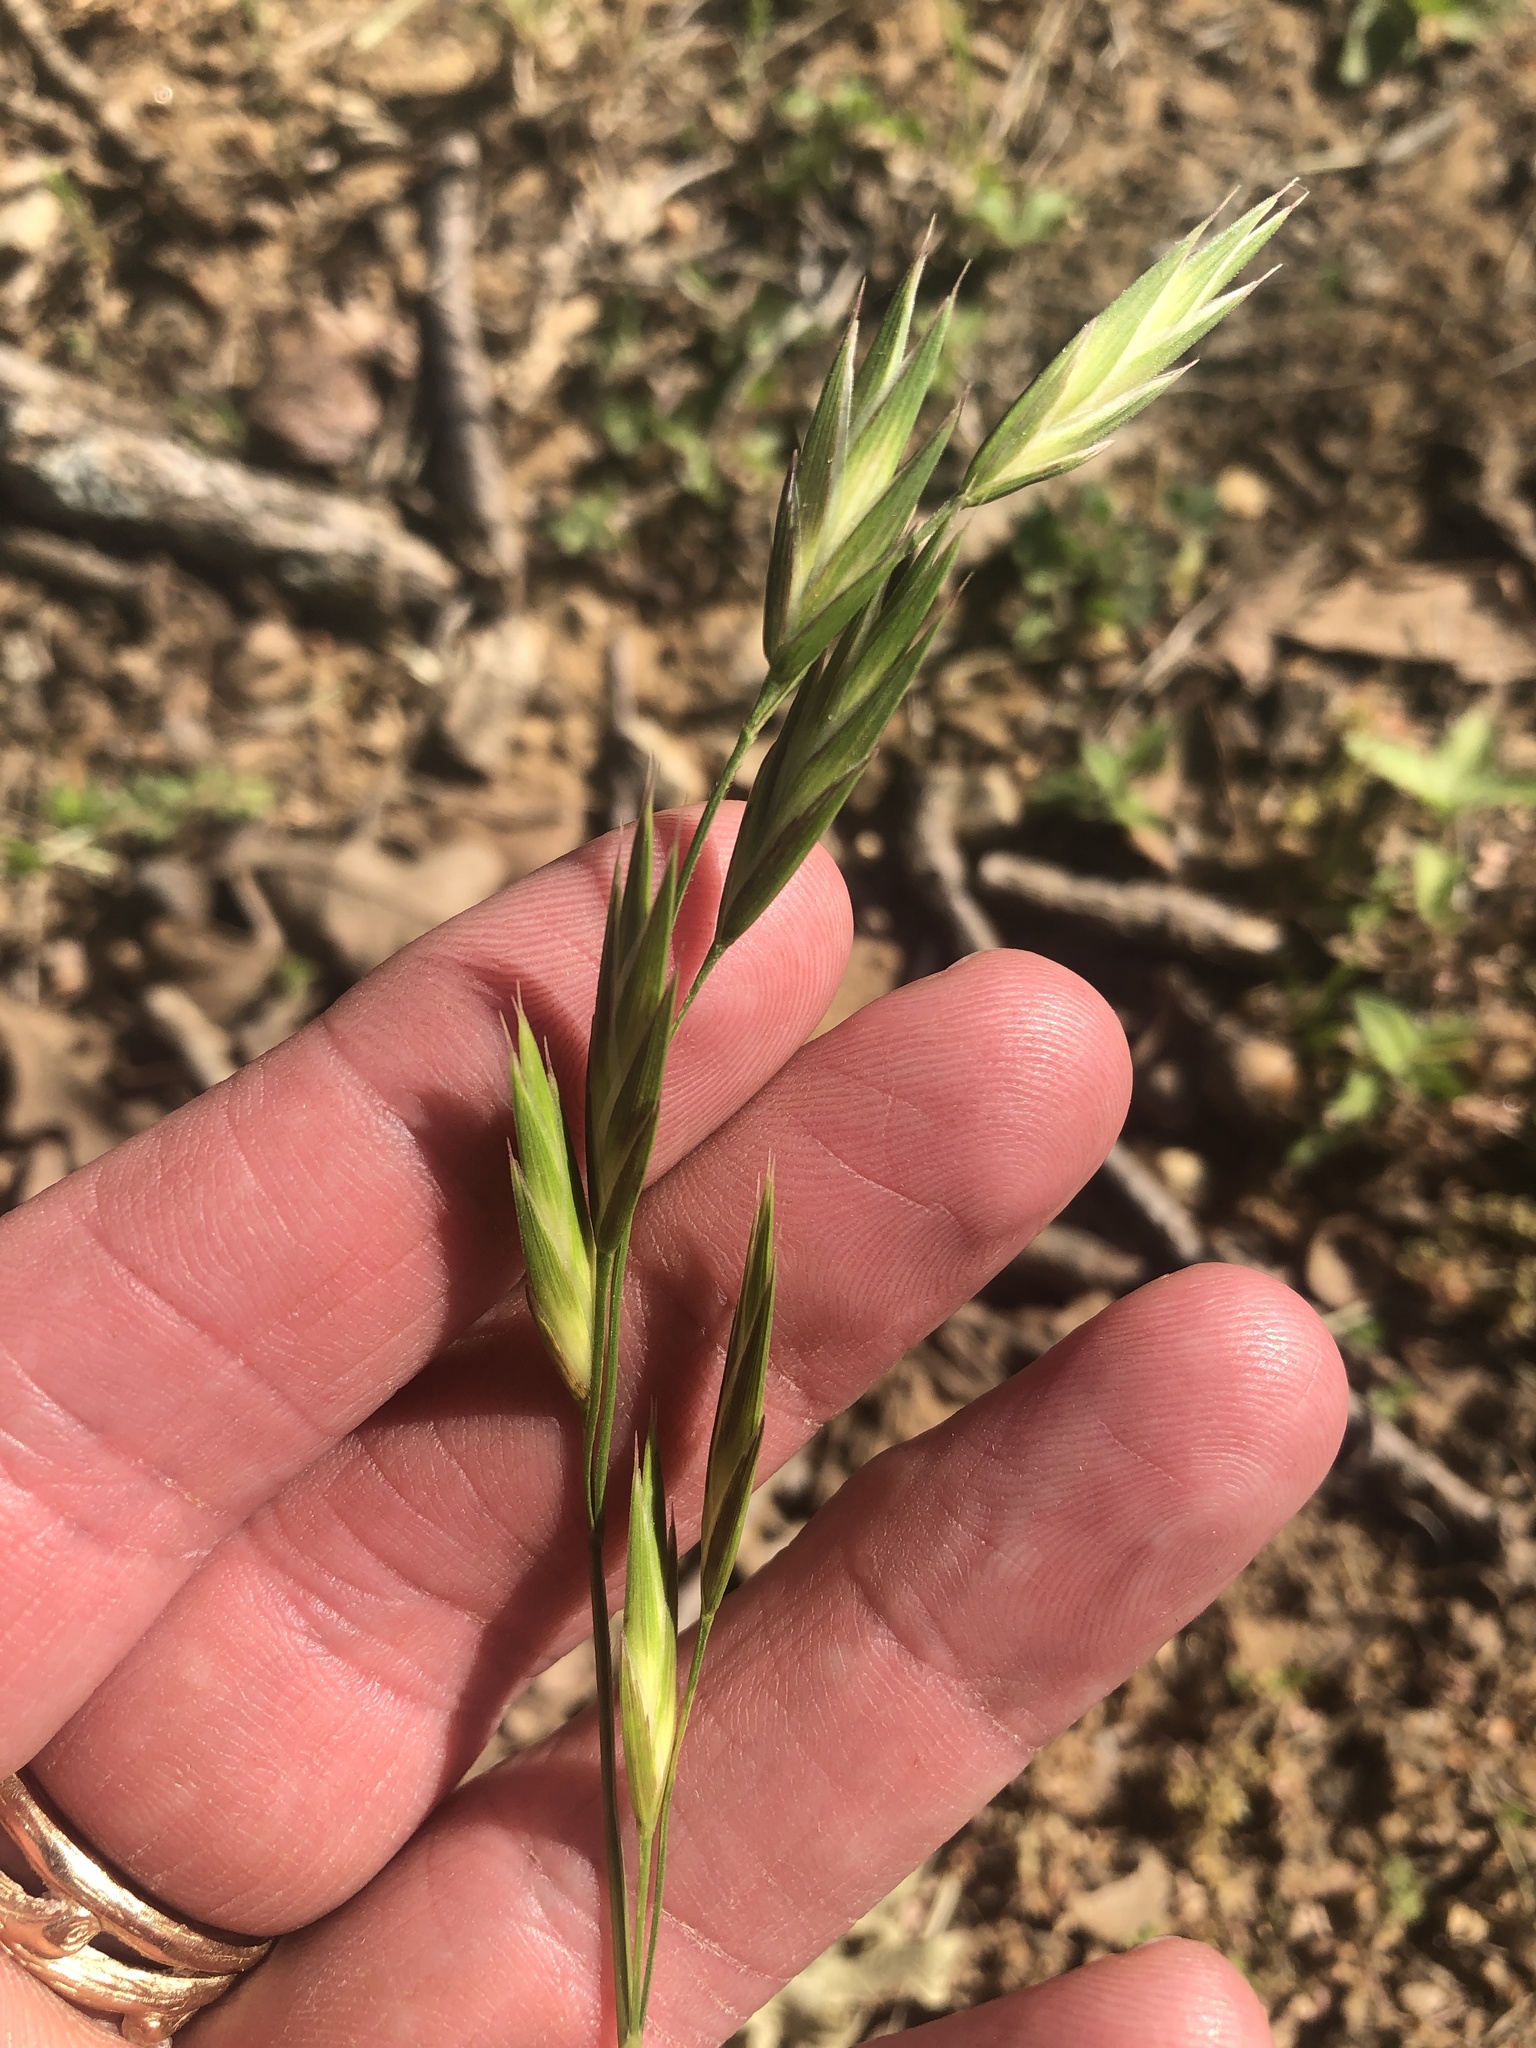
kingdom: Plantae
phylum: Tracheophyta
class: Liliopsida
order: Poales
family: Poaceae
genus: Bromus
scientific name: Bromus catharticus
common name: Rescuegrass
